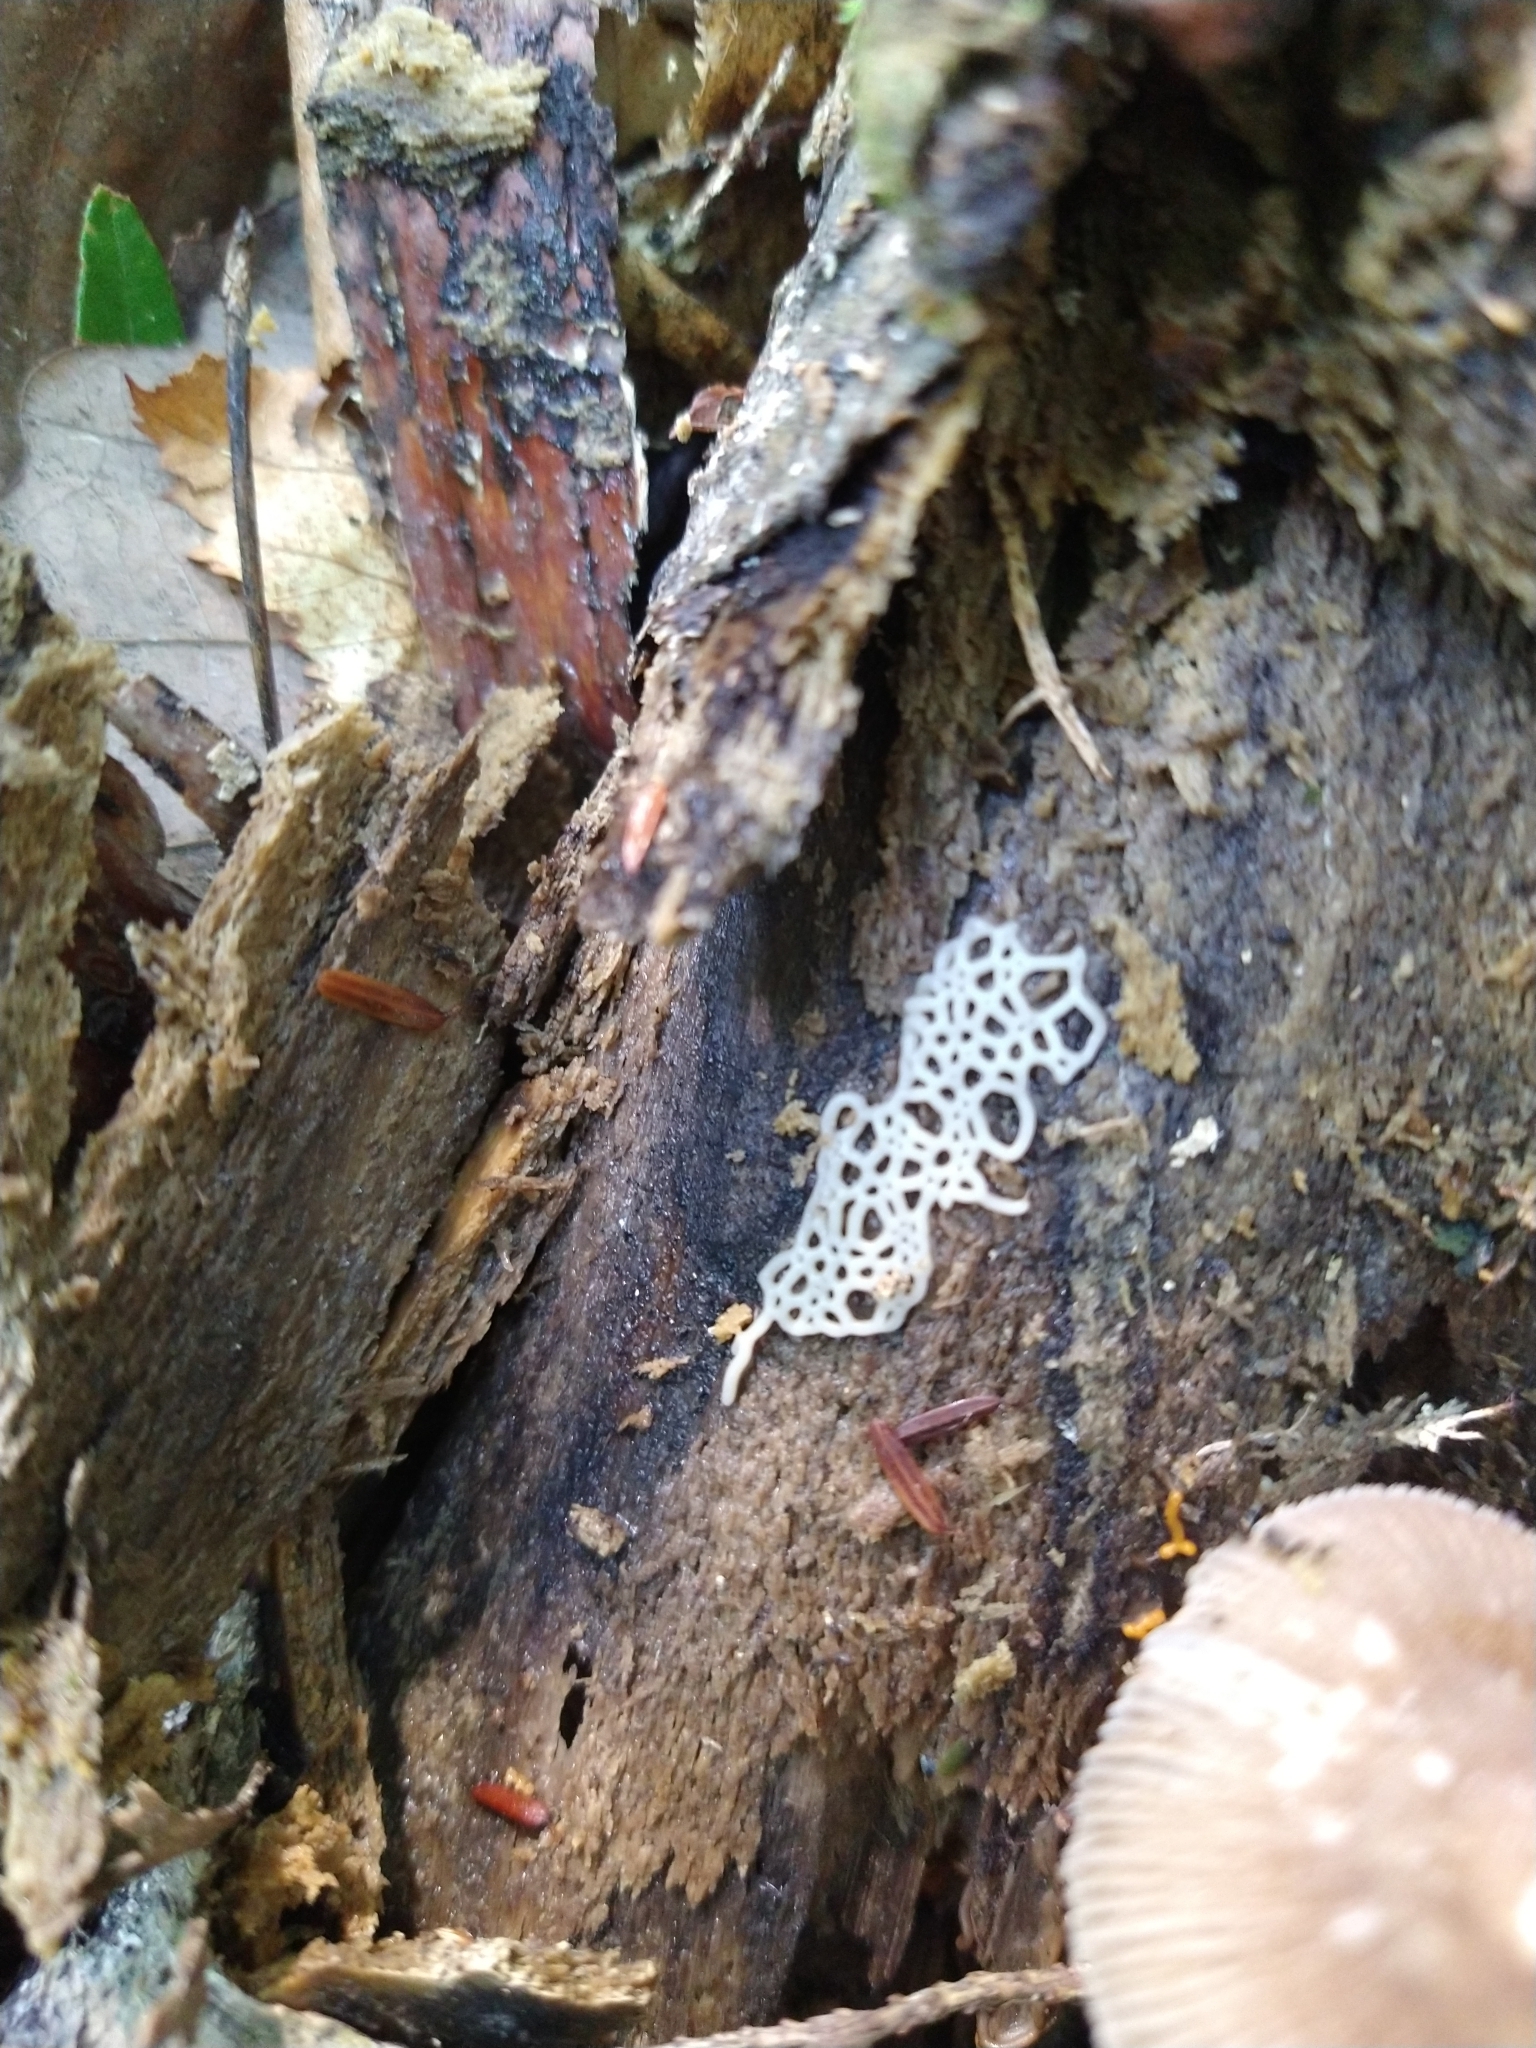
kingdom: Protozoa
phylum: Mycetozoa
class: Myxomycetes
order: Trichiales
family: Arcyriaceae
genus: Hemitrichia
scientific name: Hemitrichia serpula
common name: Pretzel slime mold
